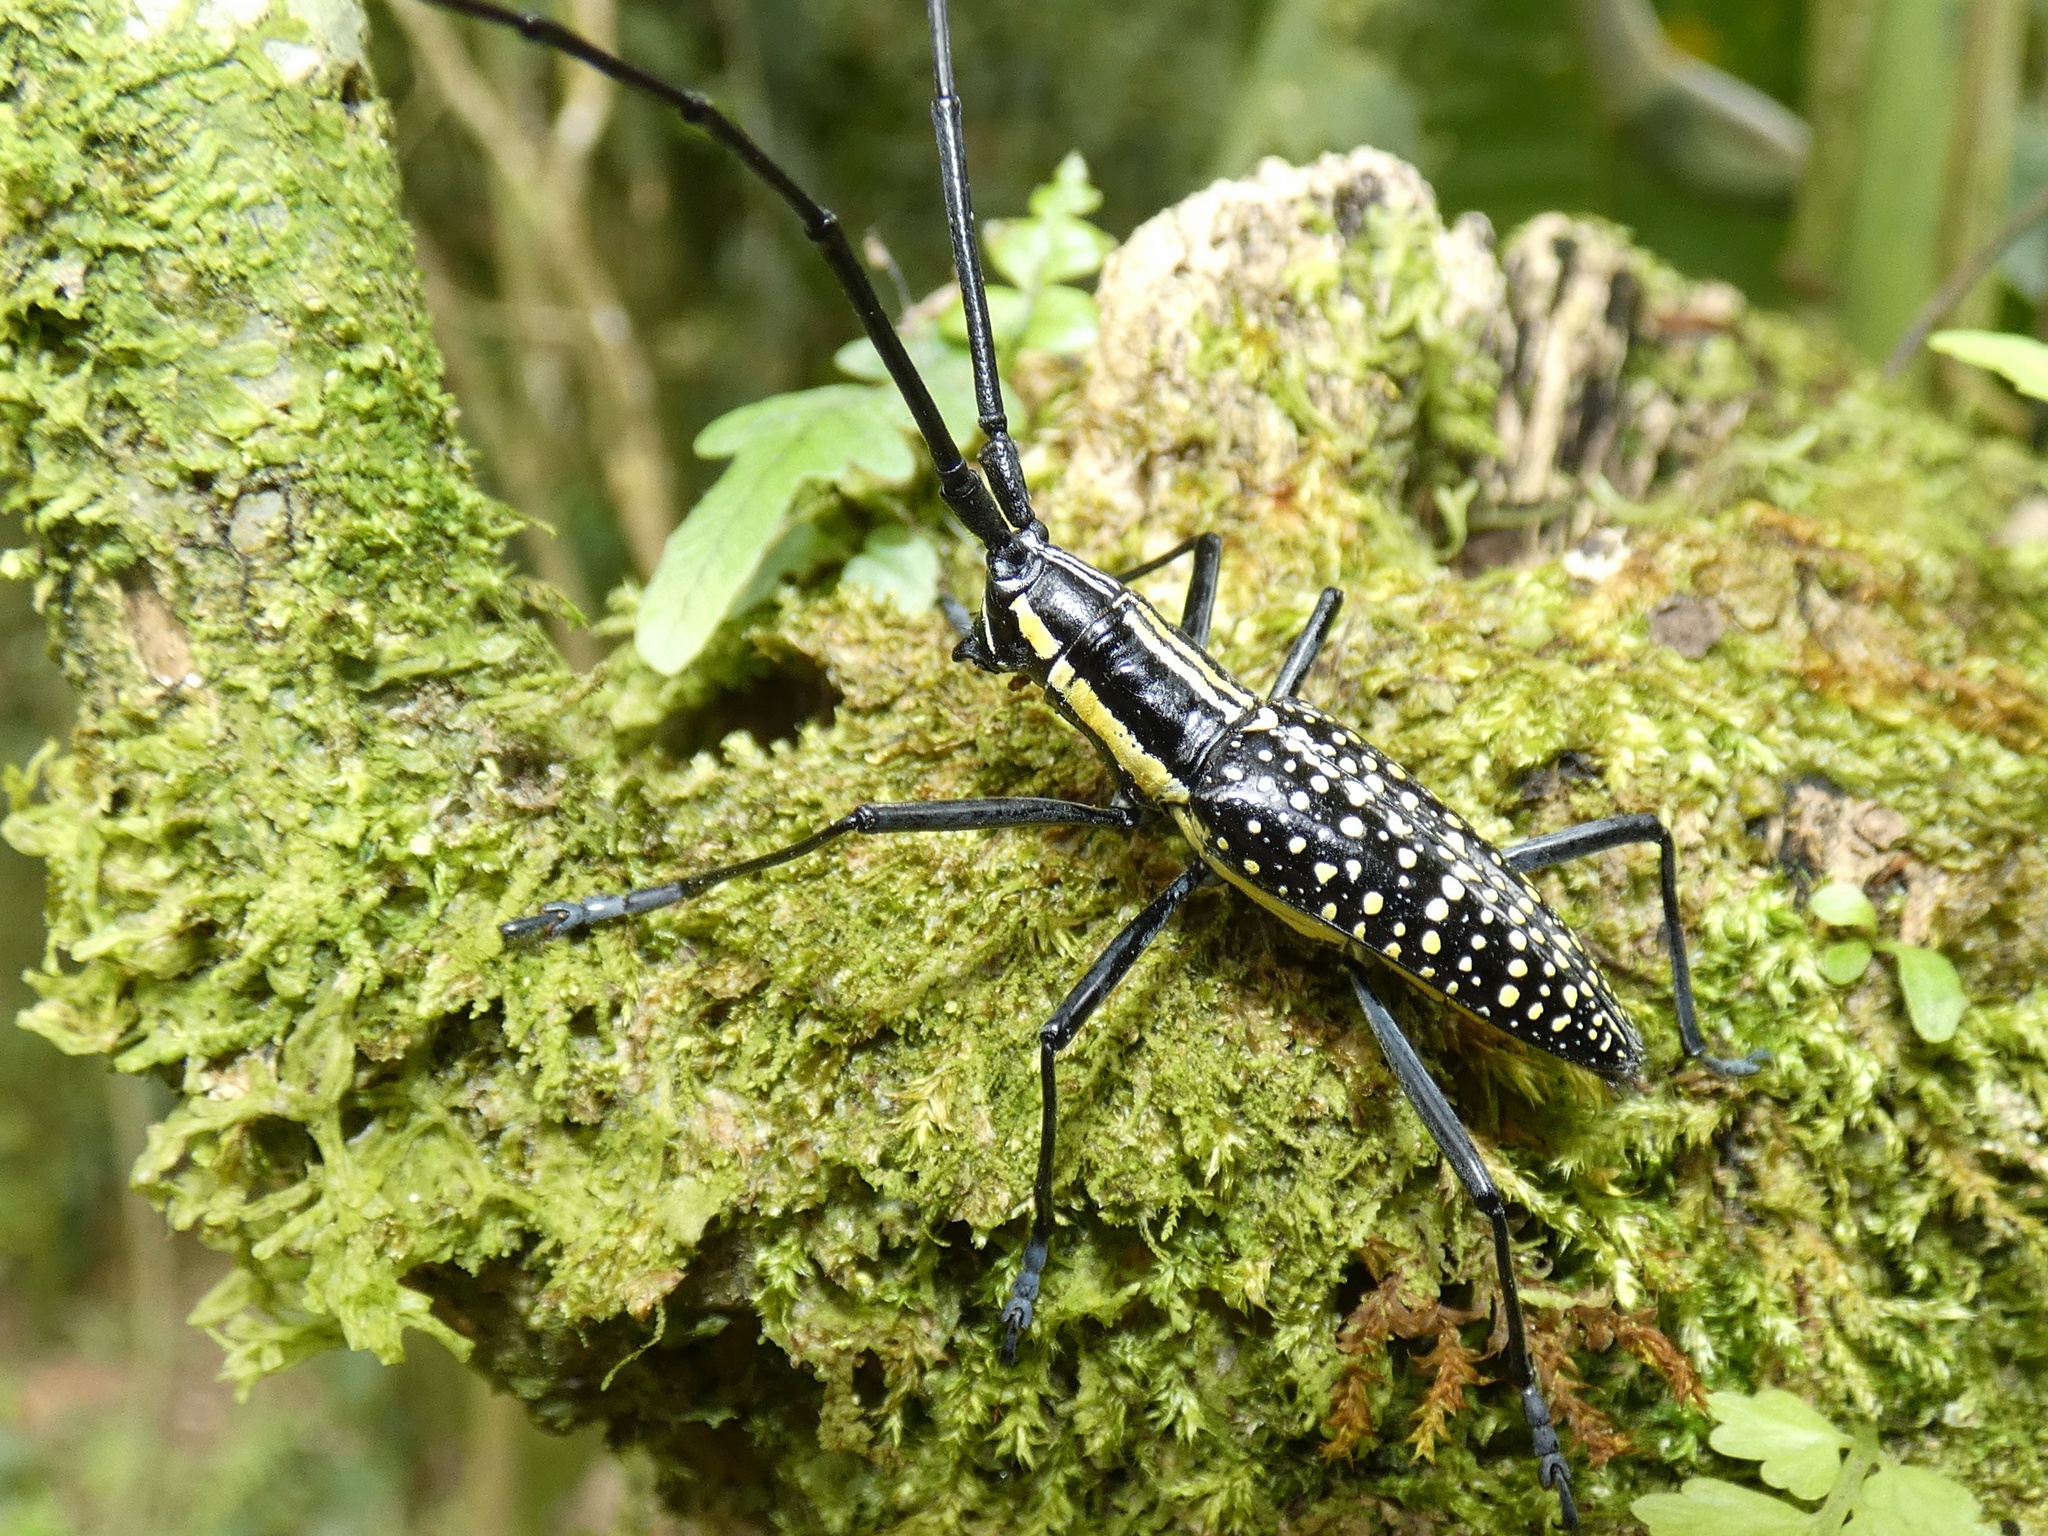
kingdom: Animalia
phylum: Arthropoda
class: Insecta
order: Coleoptera
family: Cerambycidae
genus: Ptychodes
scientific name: Ptychodes taeniotoides
